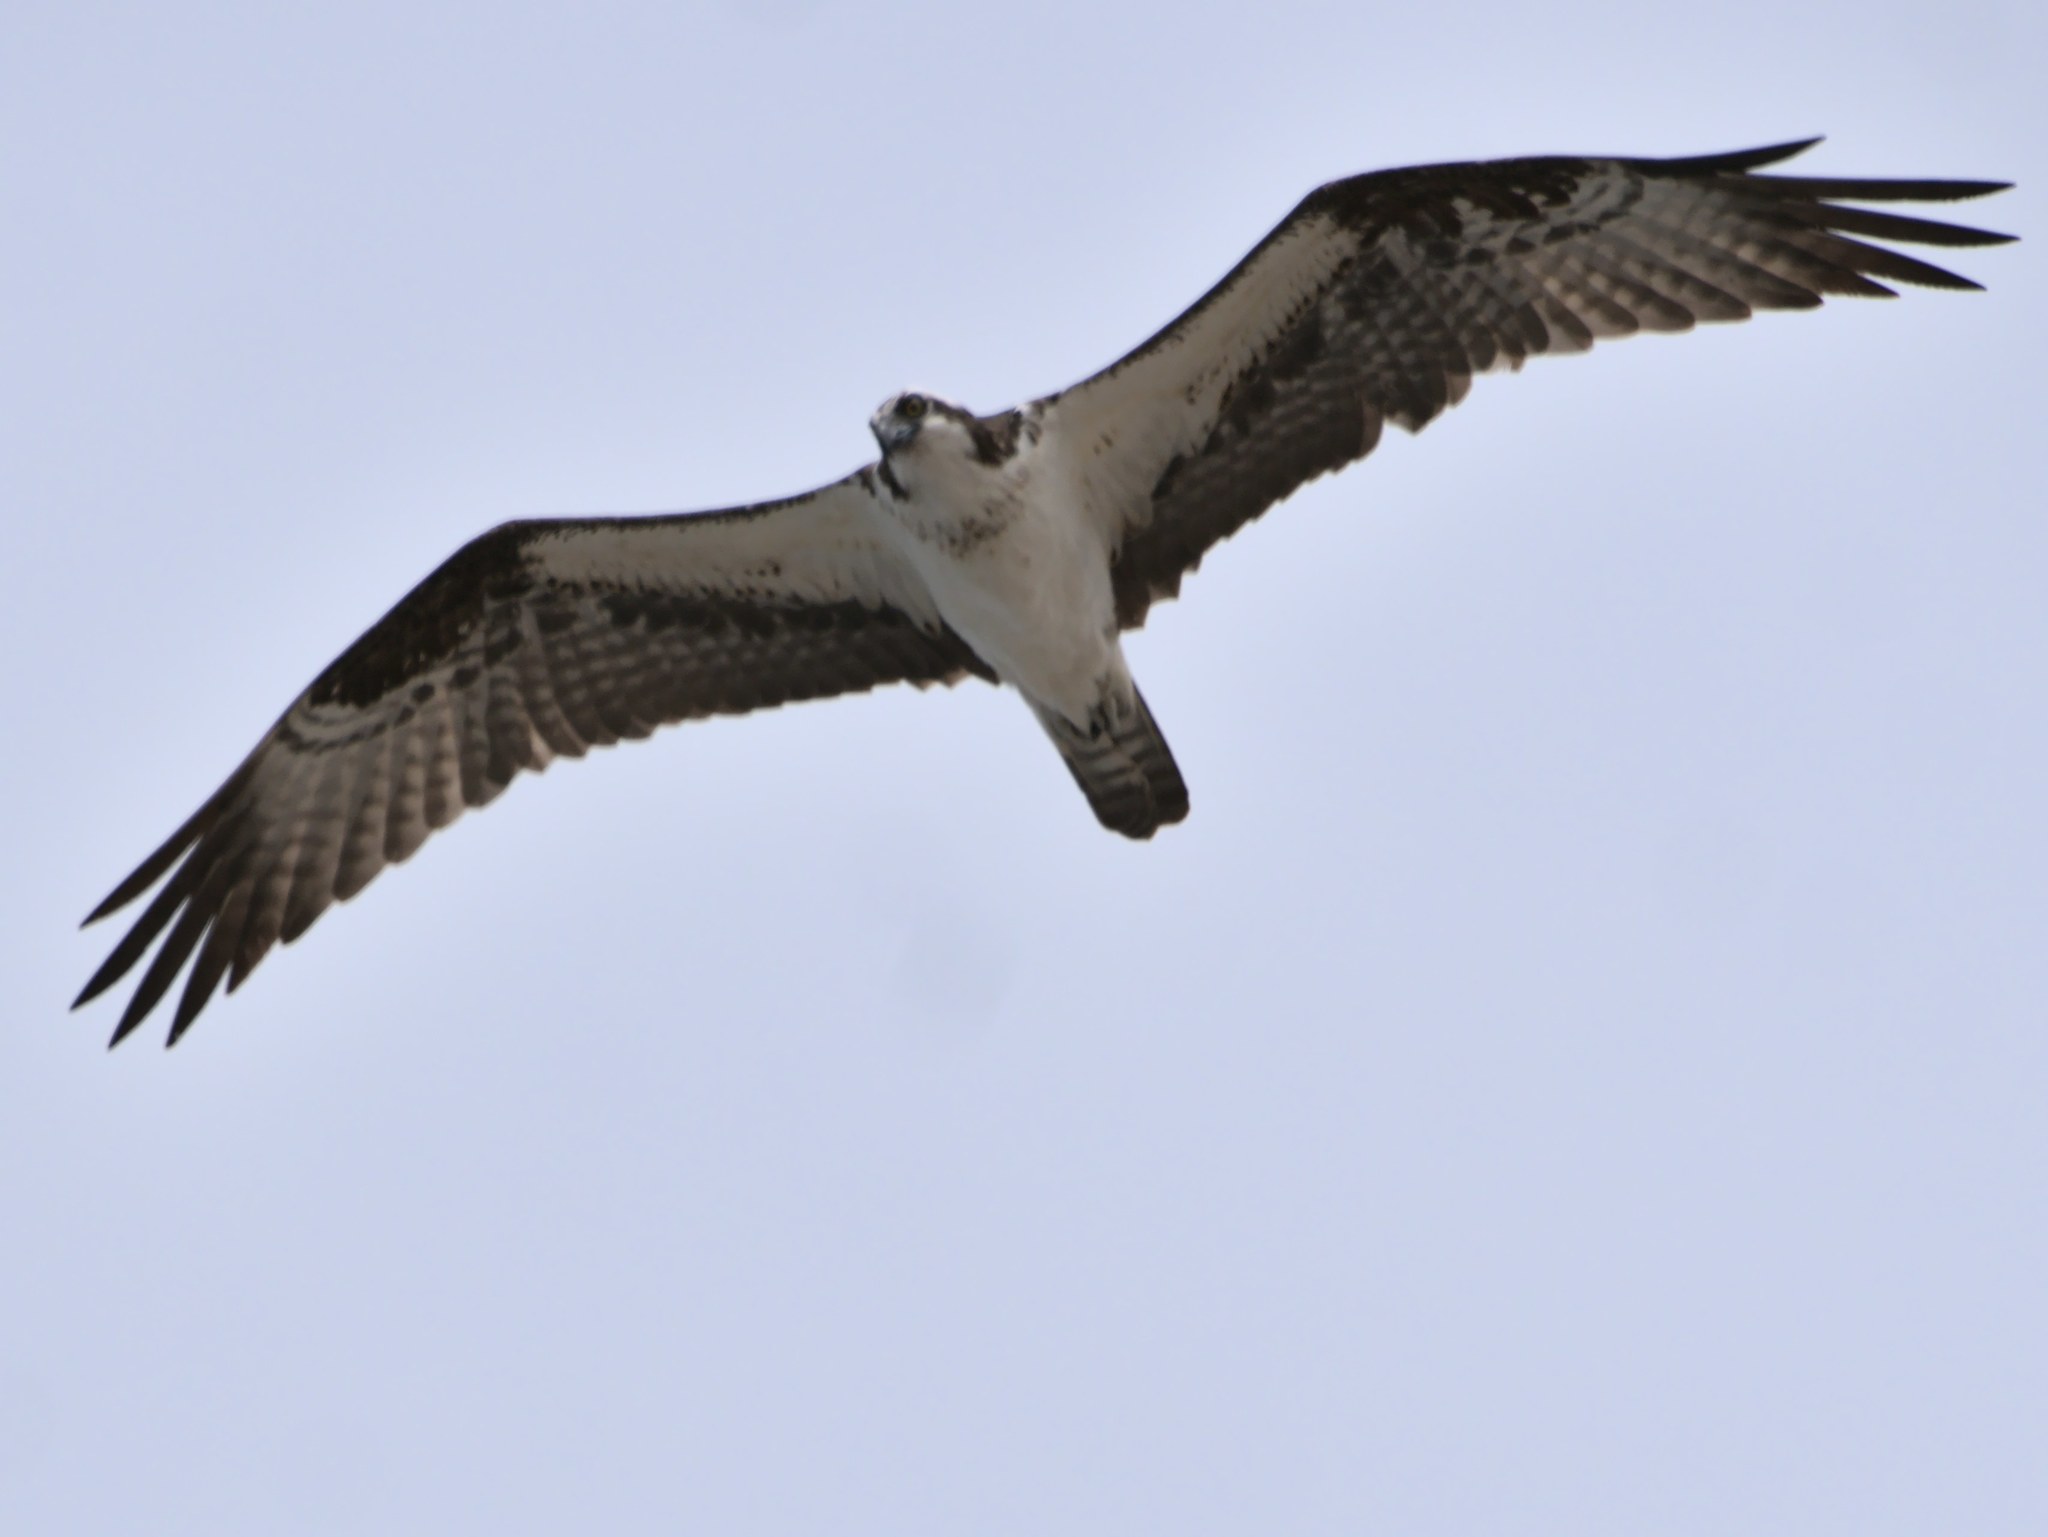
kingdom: Animalia
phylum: Chordata
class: Aves
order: Accipitriformes
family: Pandionidae
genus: Pandion
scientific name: Pandion haliaetus
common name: Osprey
